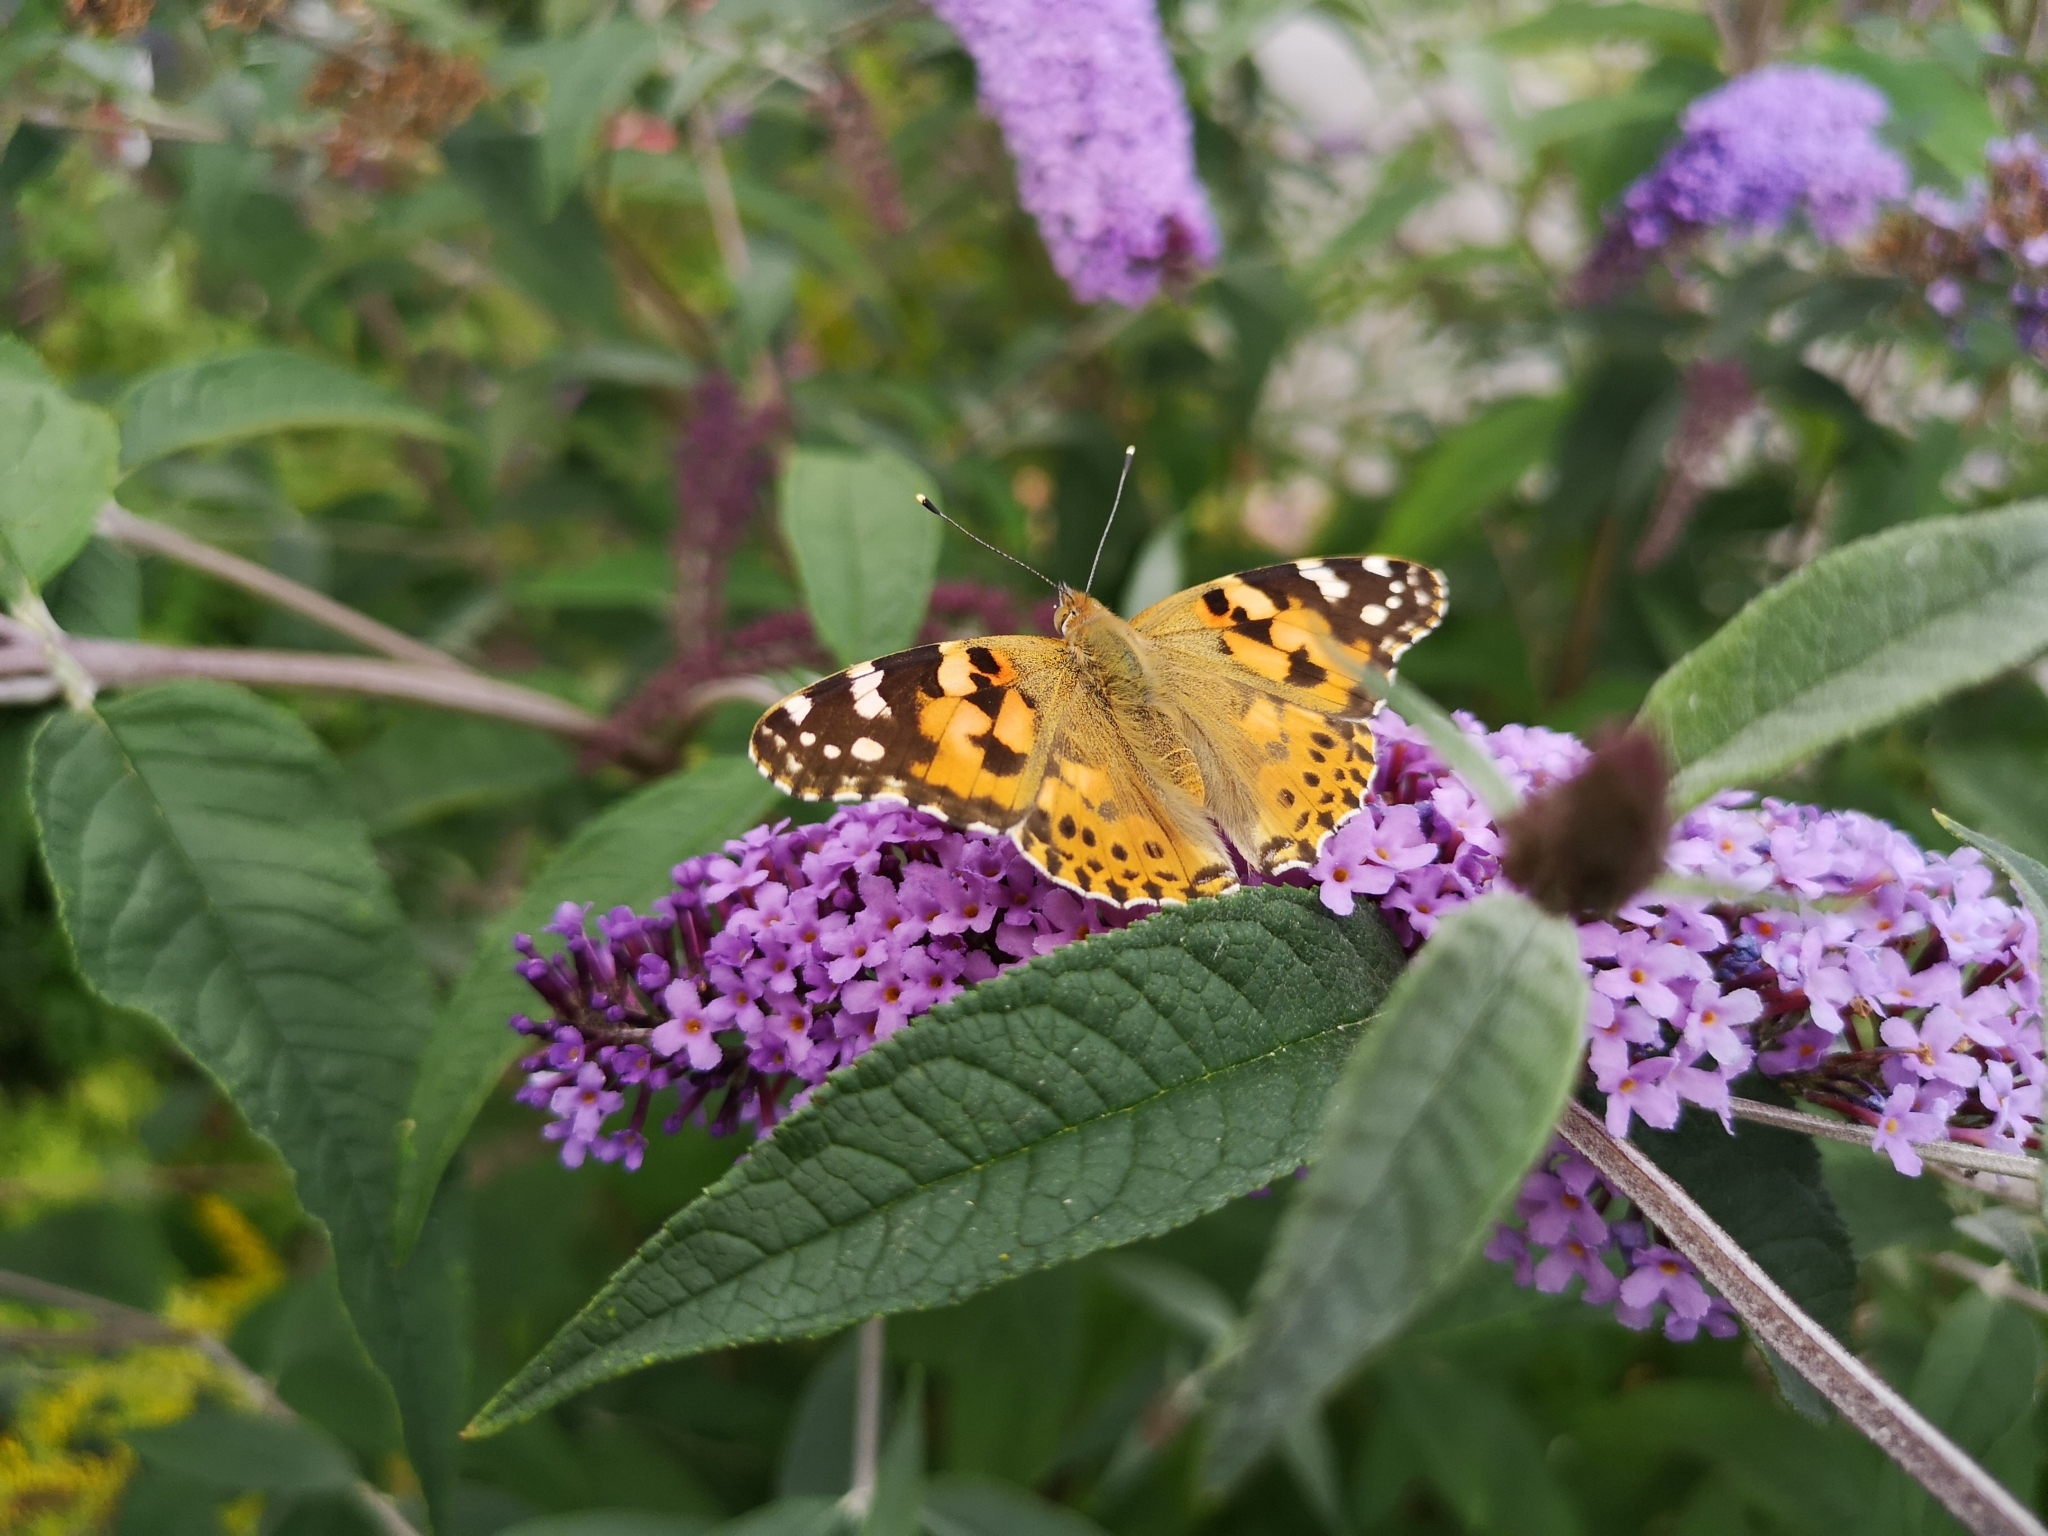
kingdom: Animalia
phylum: Arthropoda
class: Insecta
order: Lepidoptera
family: Nymphalidae
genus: Vanessa
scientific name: Vanessa cardui
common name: Painted lady
